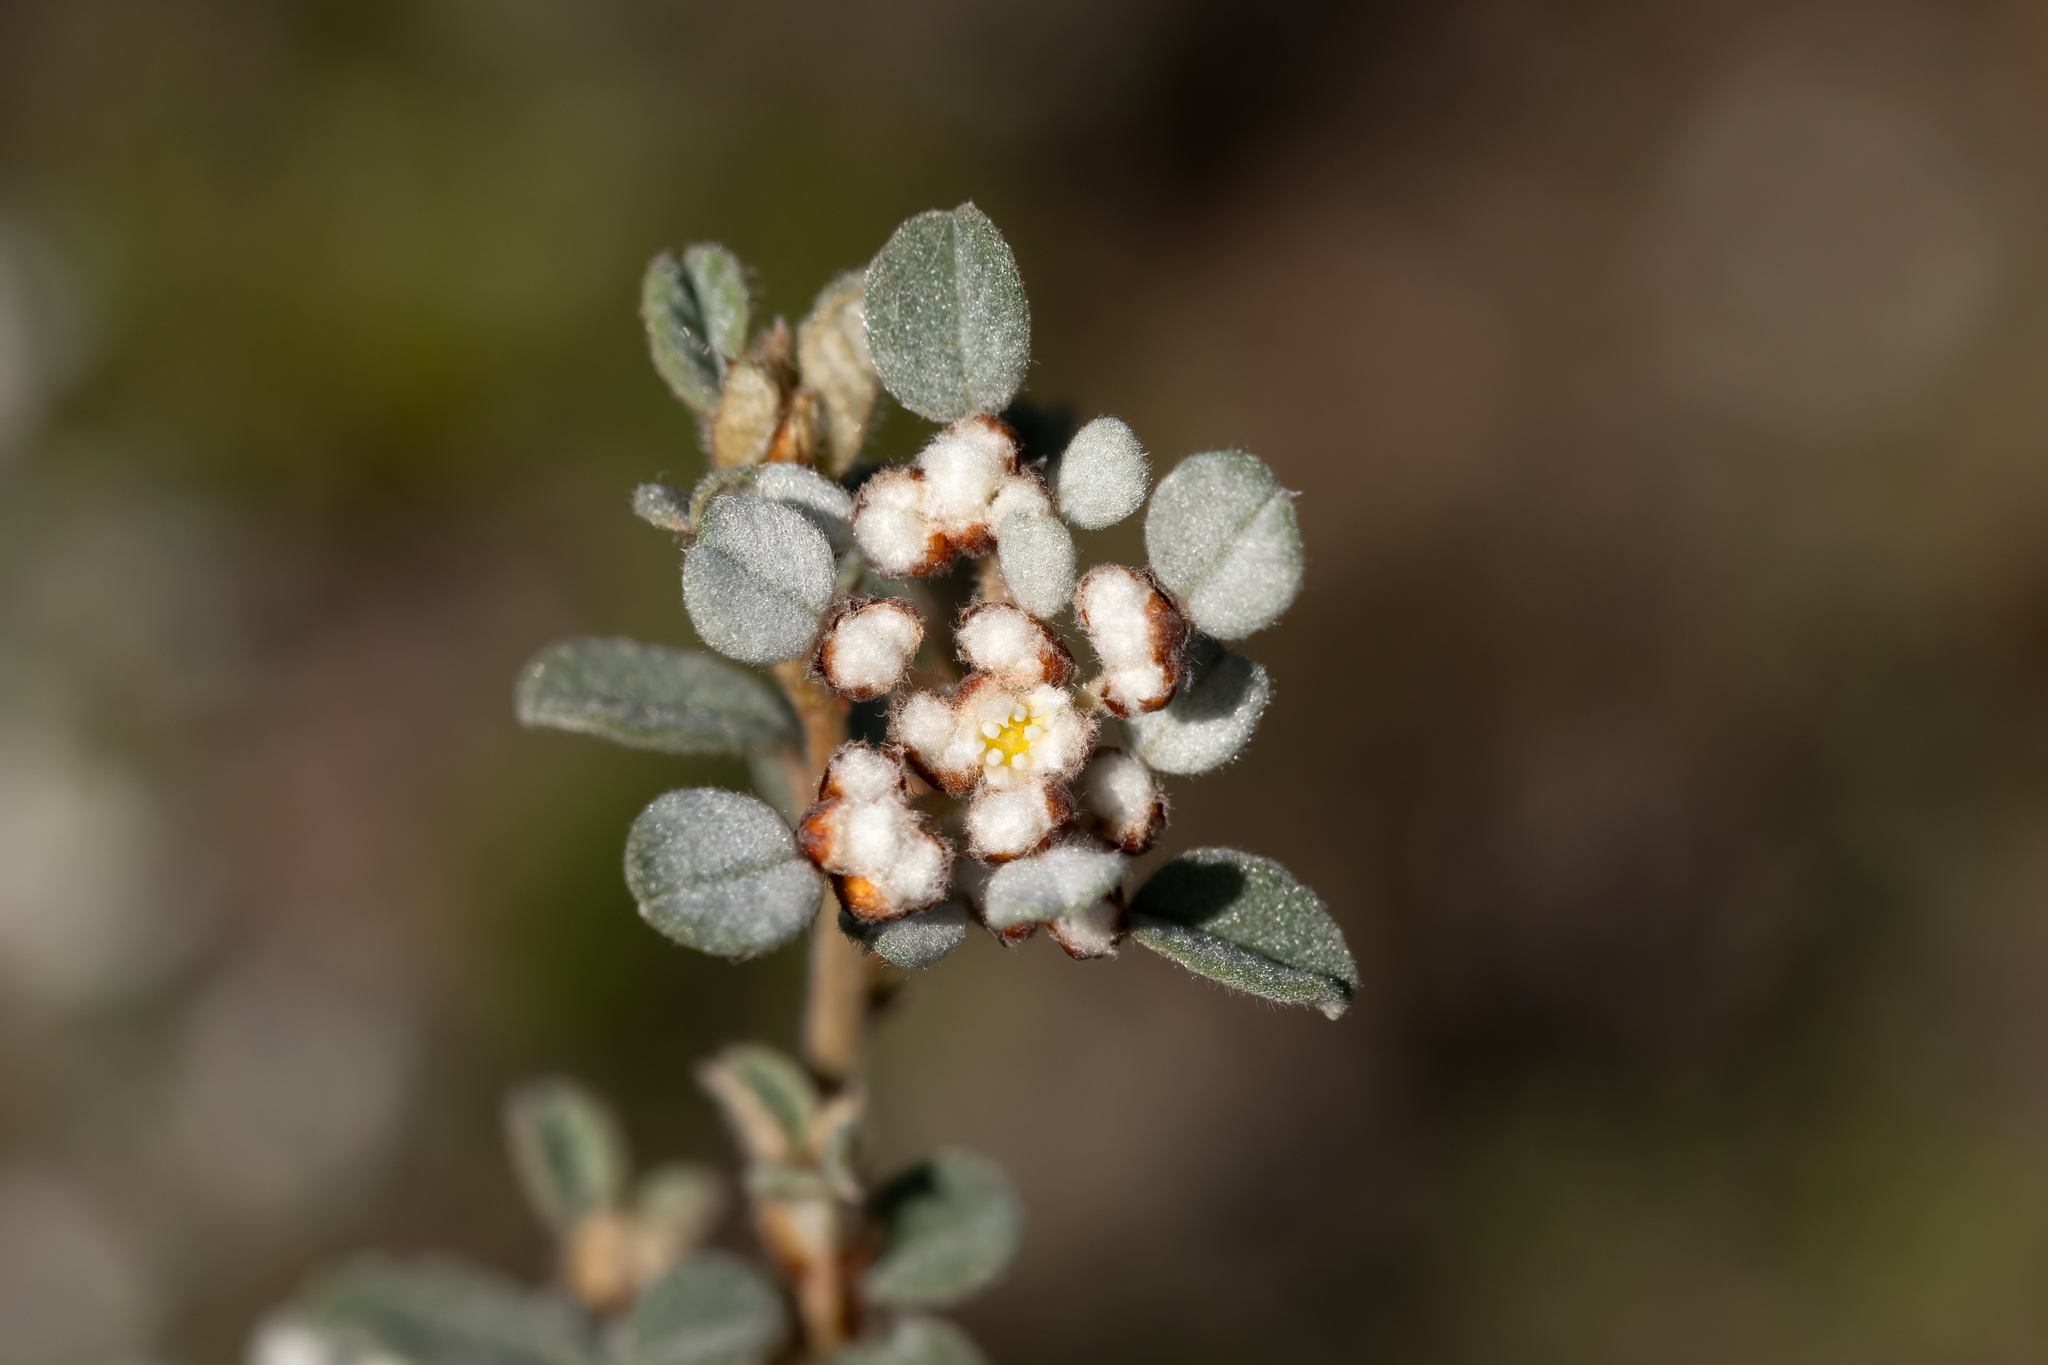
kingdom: Plantae
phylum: Tracheophyta
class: Magnoliopsida
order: Rosales
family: Rhamnaceae
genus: Spyridium
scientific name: Spyridium parvifolium
